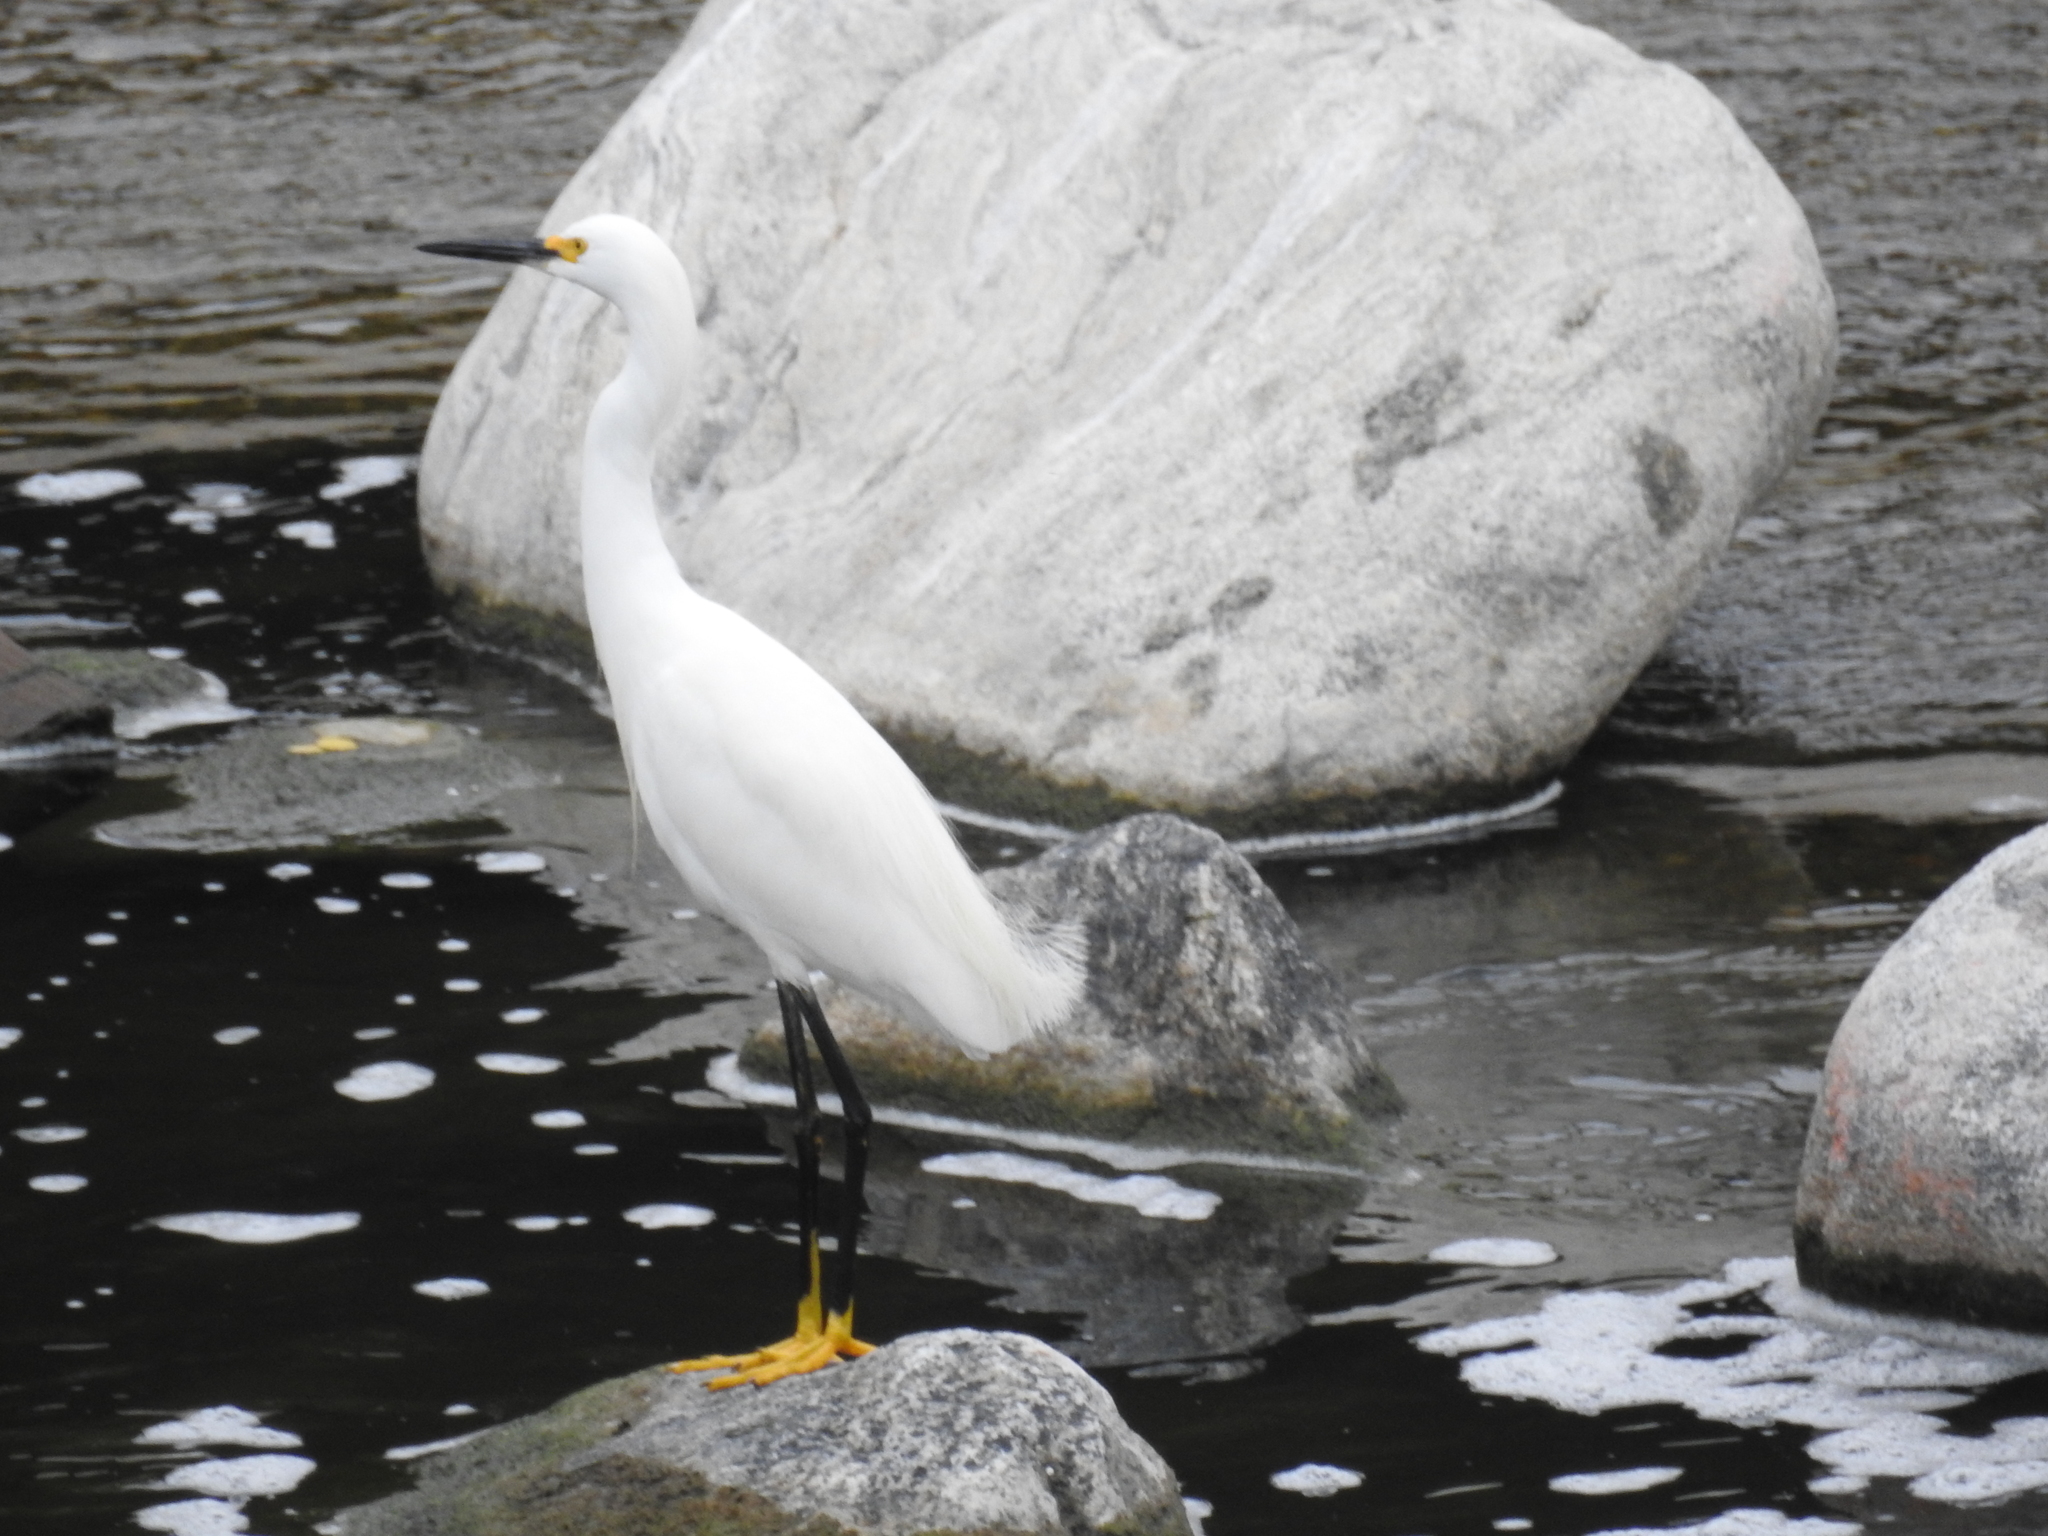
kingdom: Animalia
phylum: Chordata
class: Aves
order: Pelecaniformes
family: Ardeidae
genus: Egretta
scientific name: Egretta thula
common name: Snowy egret
